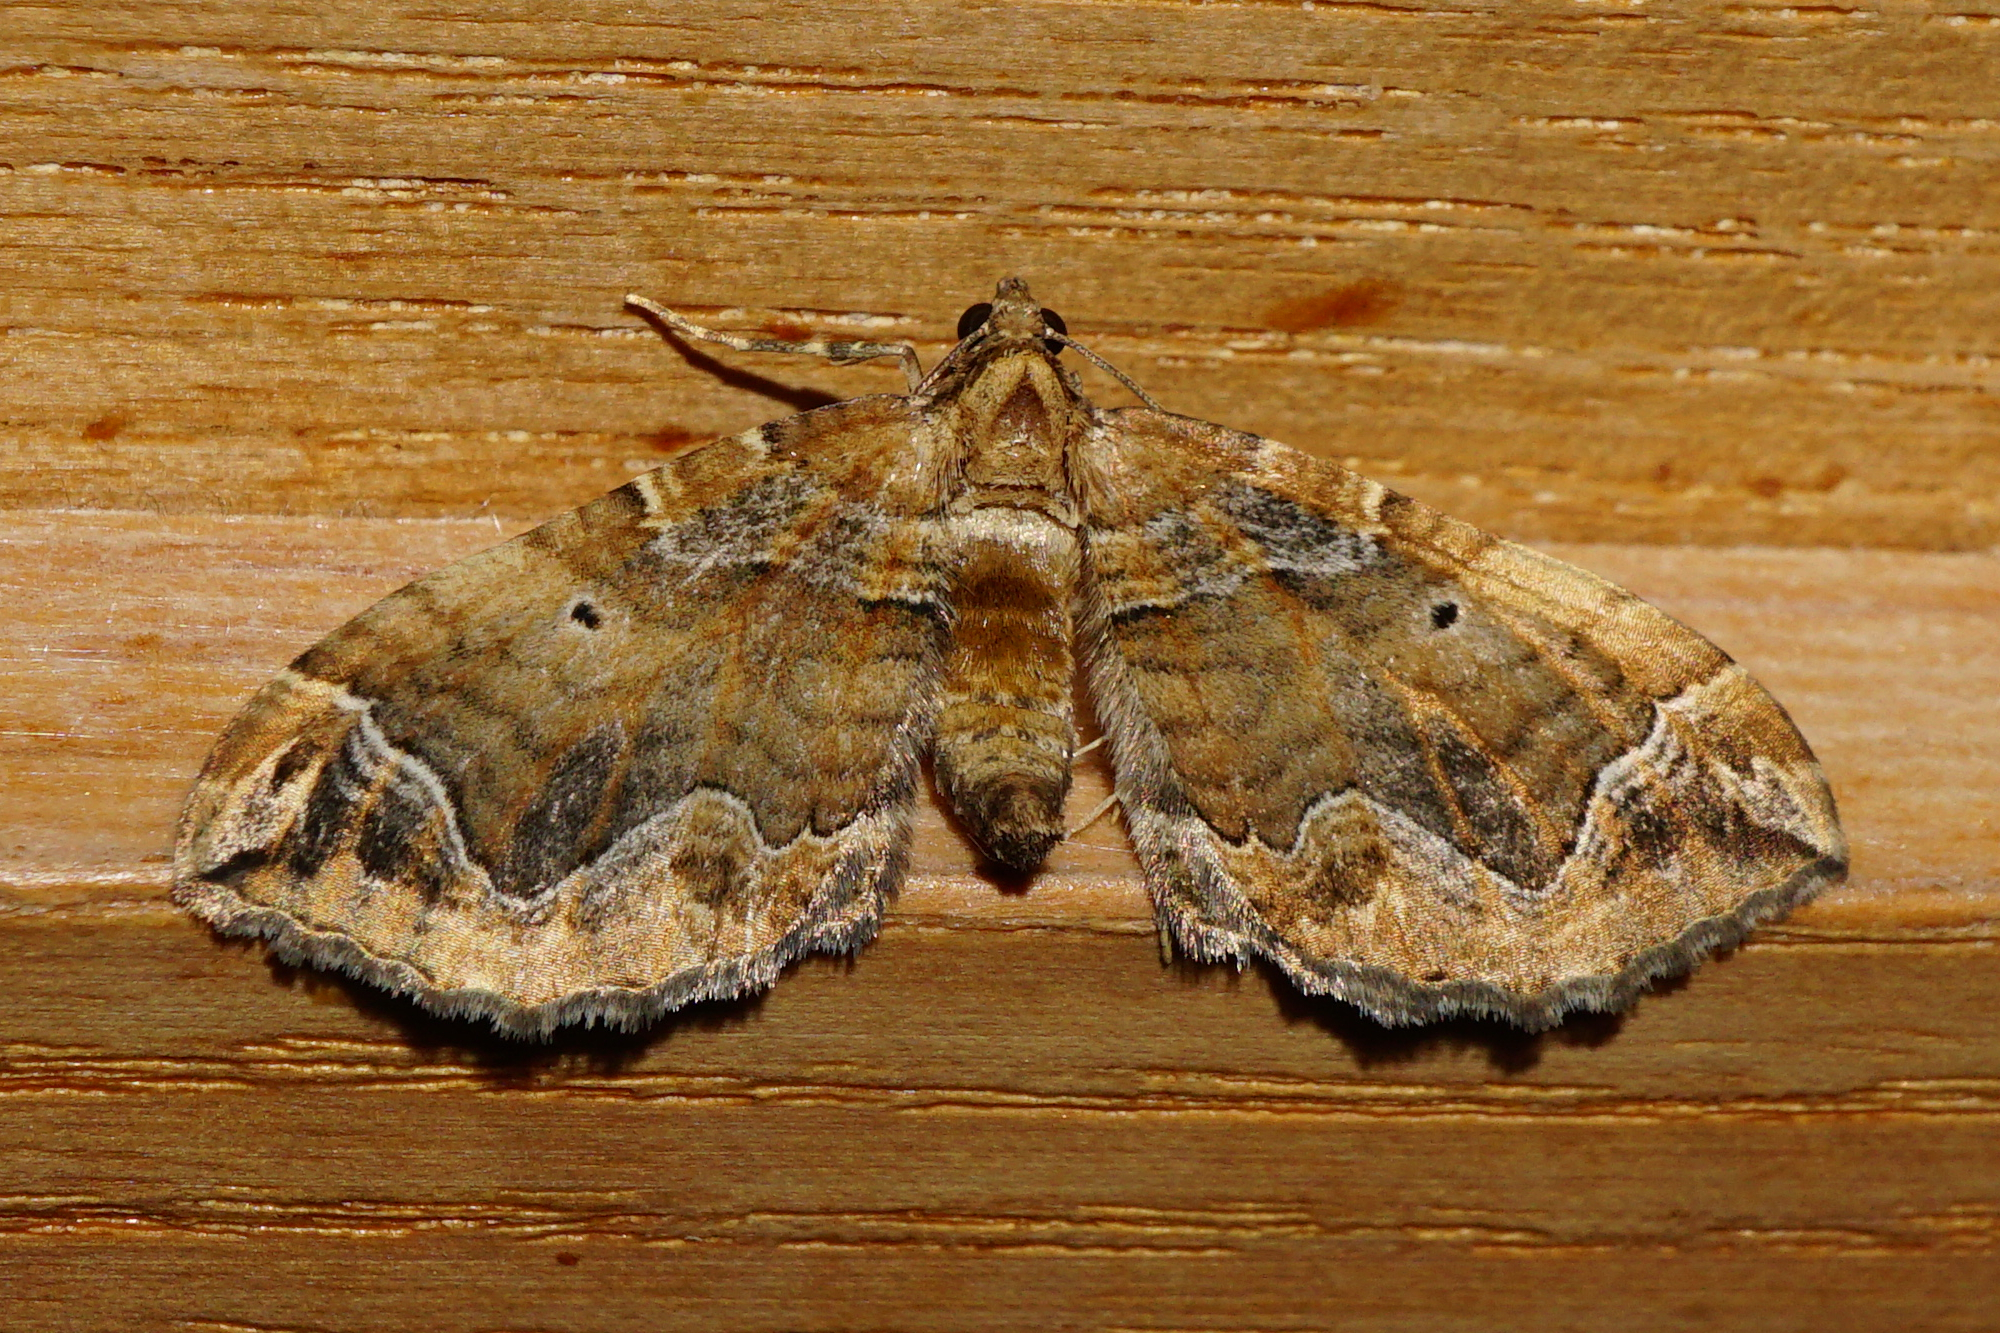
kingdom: Animalia
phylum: Arthropoda
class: Insecta
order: Lepidoptera
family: Geometridae
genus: Pelurga
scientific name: Pelurga comitata
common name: Dark spinach
